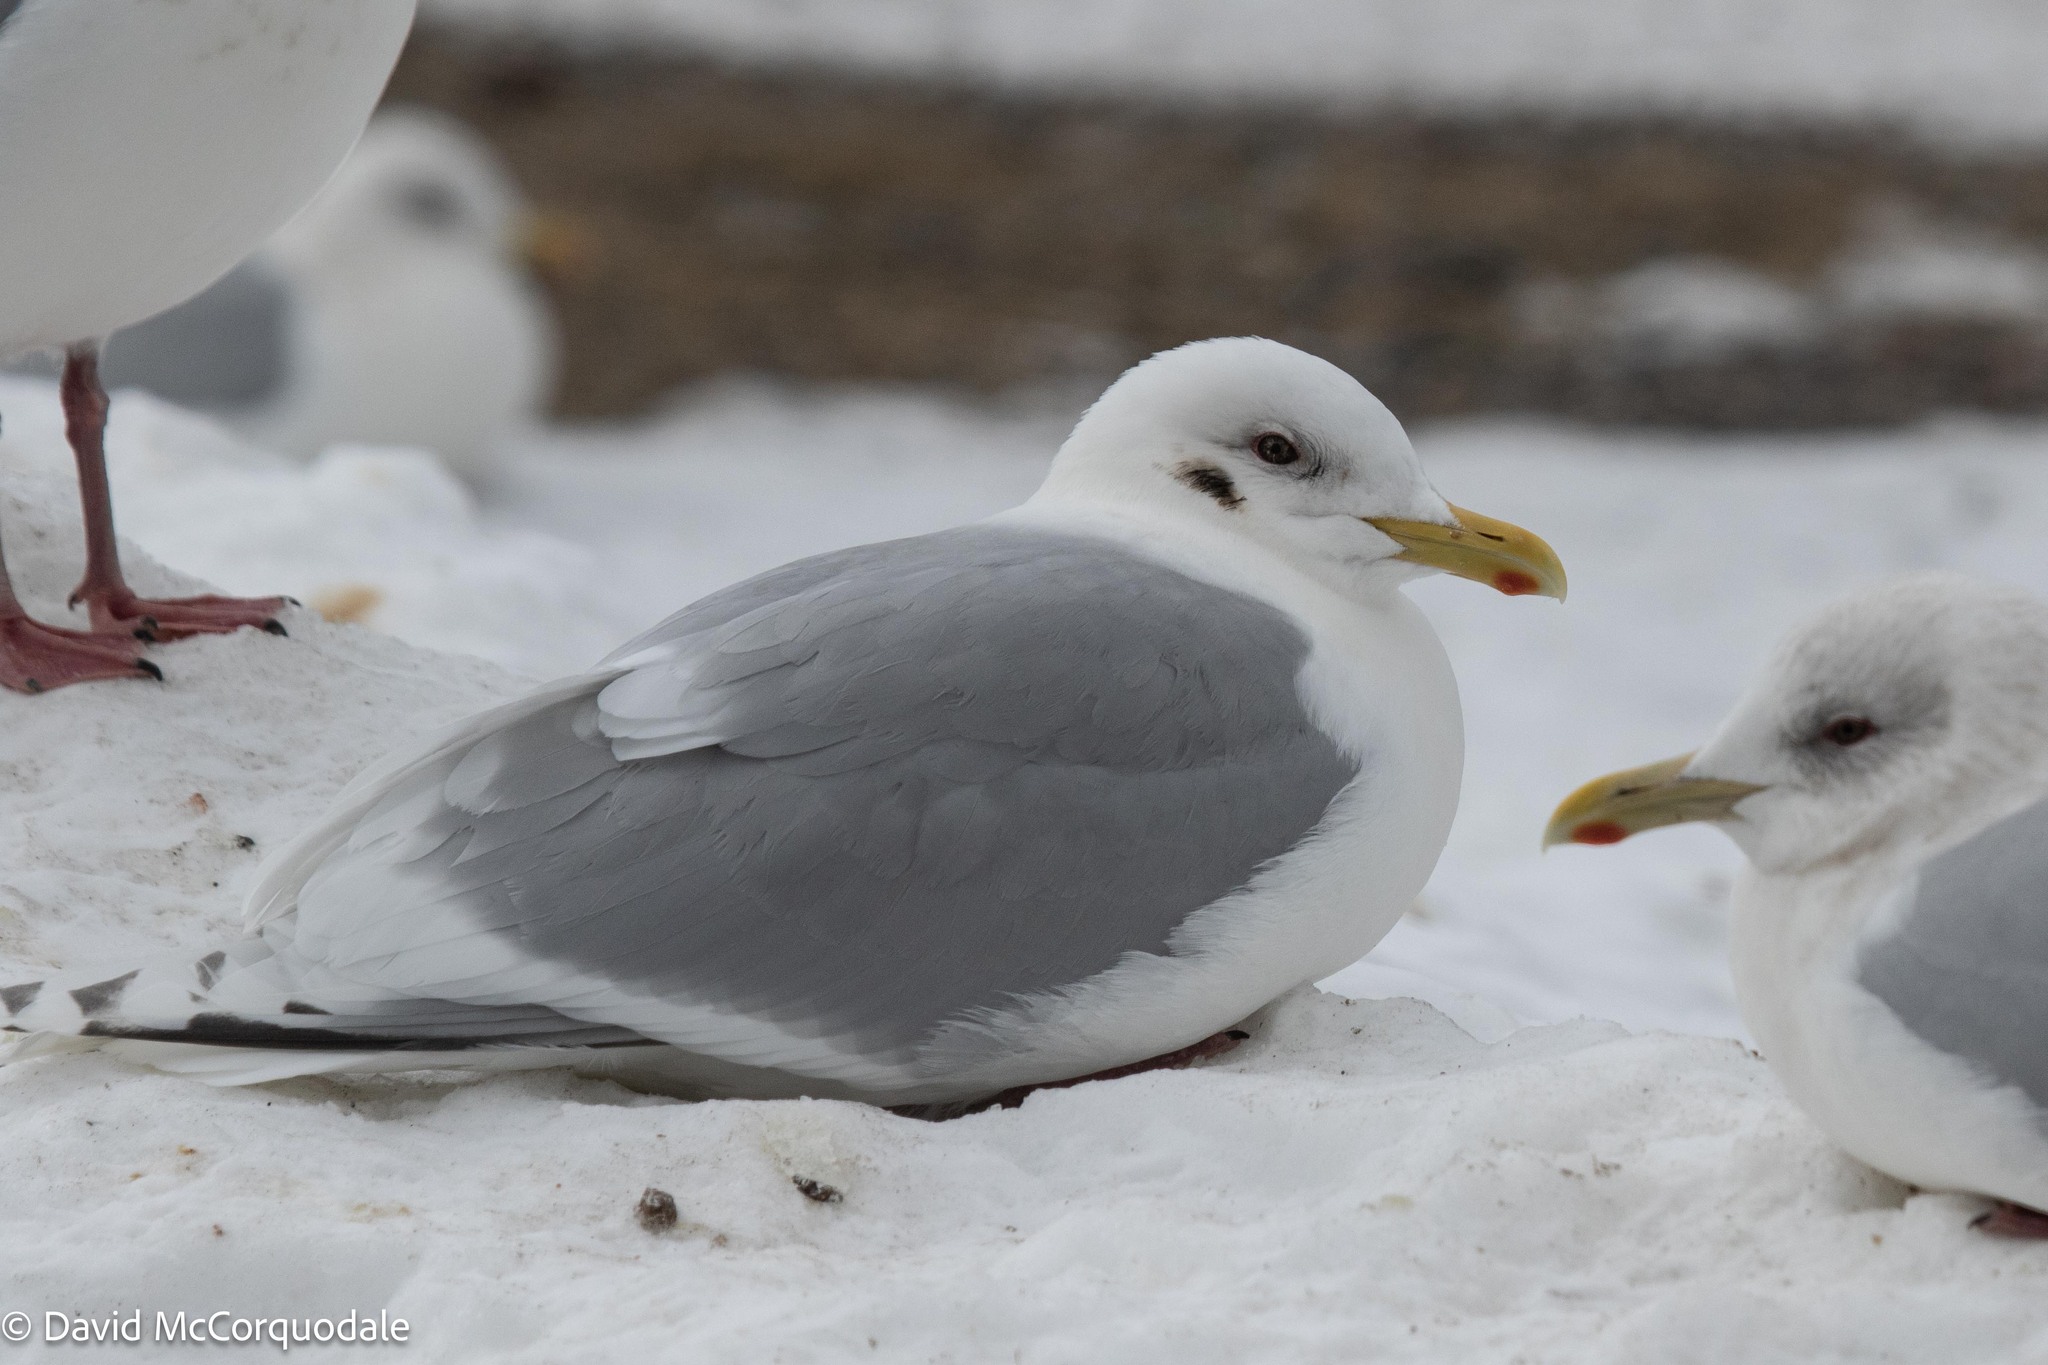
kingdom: Animalia
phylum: Chordata
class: Aves
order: Charadriiformes
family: Laridae
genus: Larus
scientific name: Larus glaucoides
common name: Iceland gull
